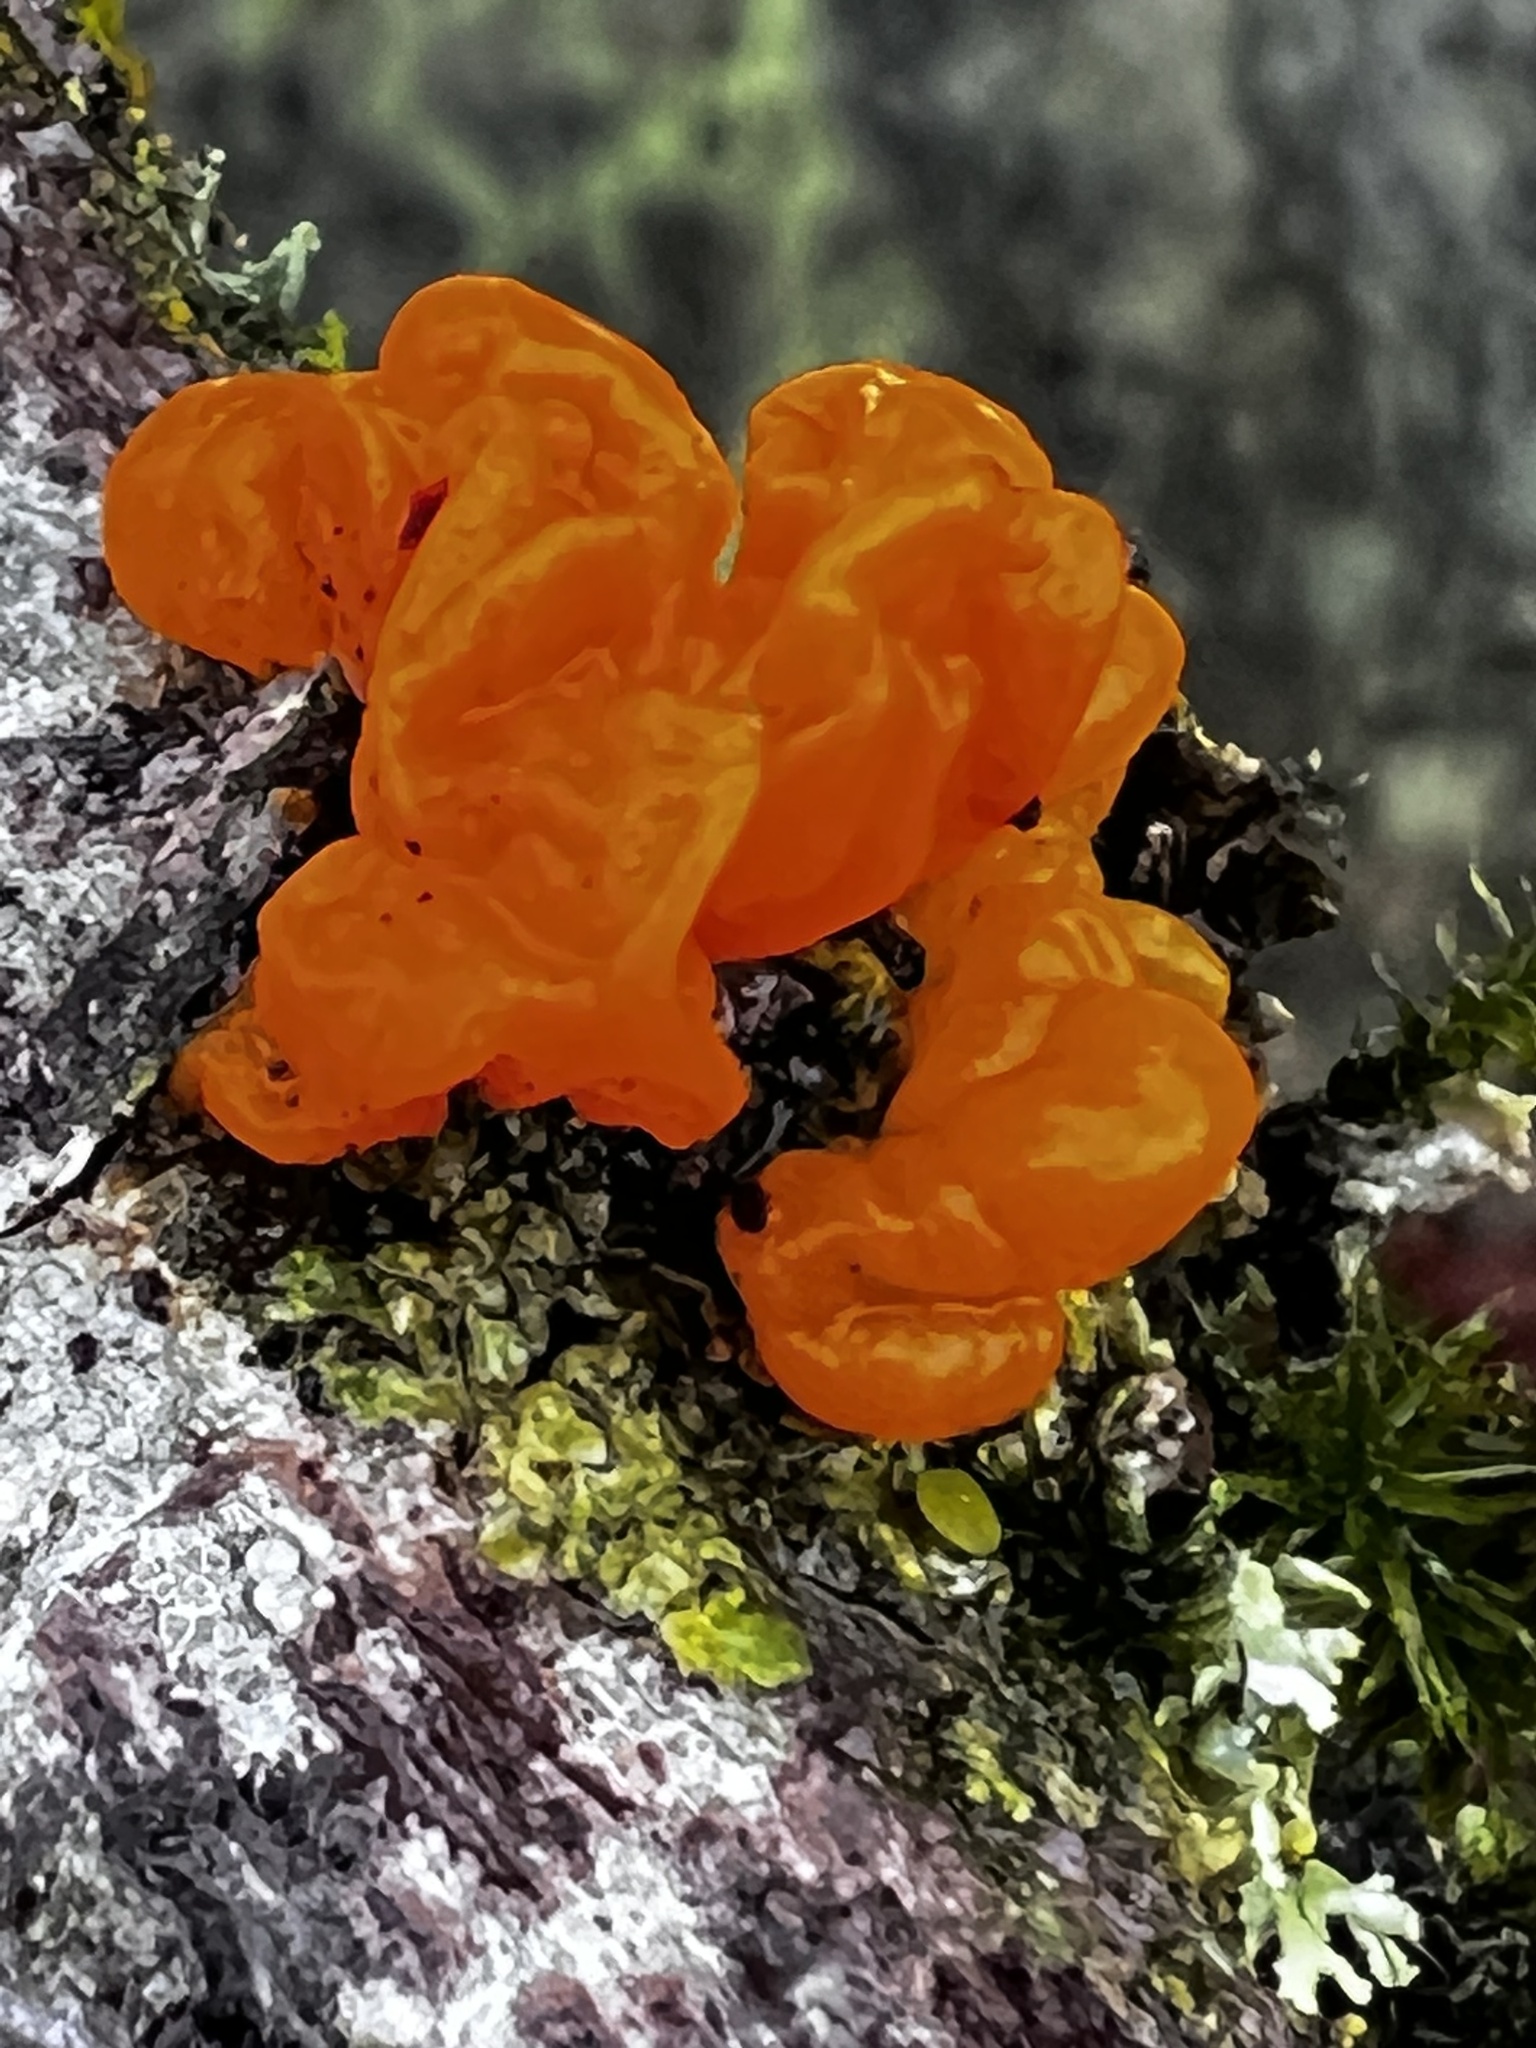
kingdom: Fungi
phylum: Basidiomycota
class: Tremellomycetes
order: Tremellales
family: Tremellaceae
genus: Tremella
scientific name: Tremella mesenterica
